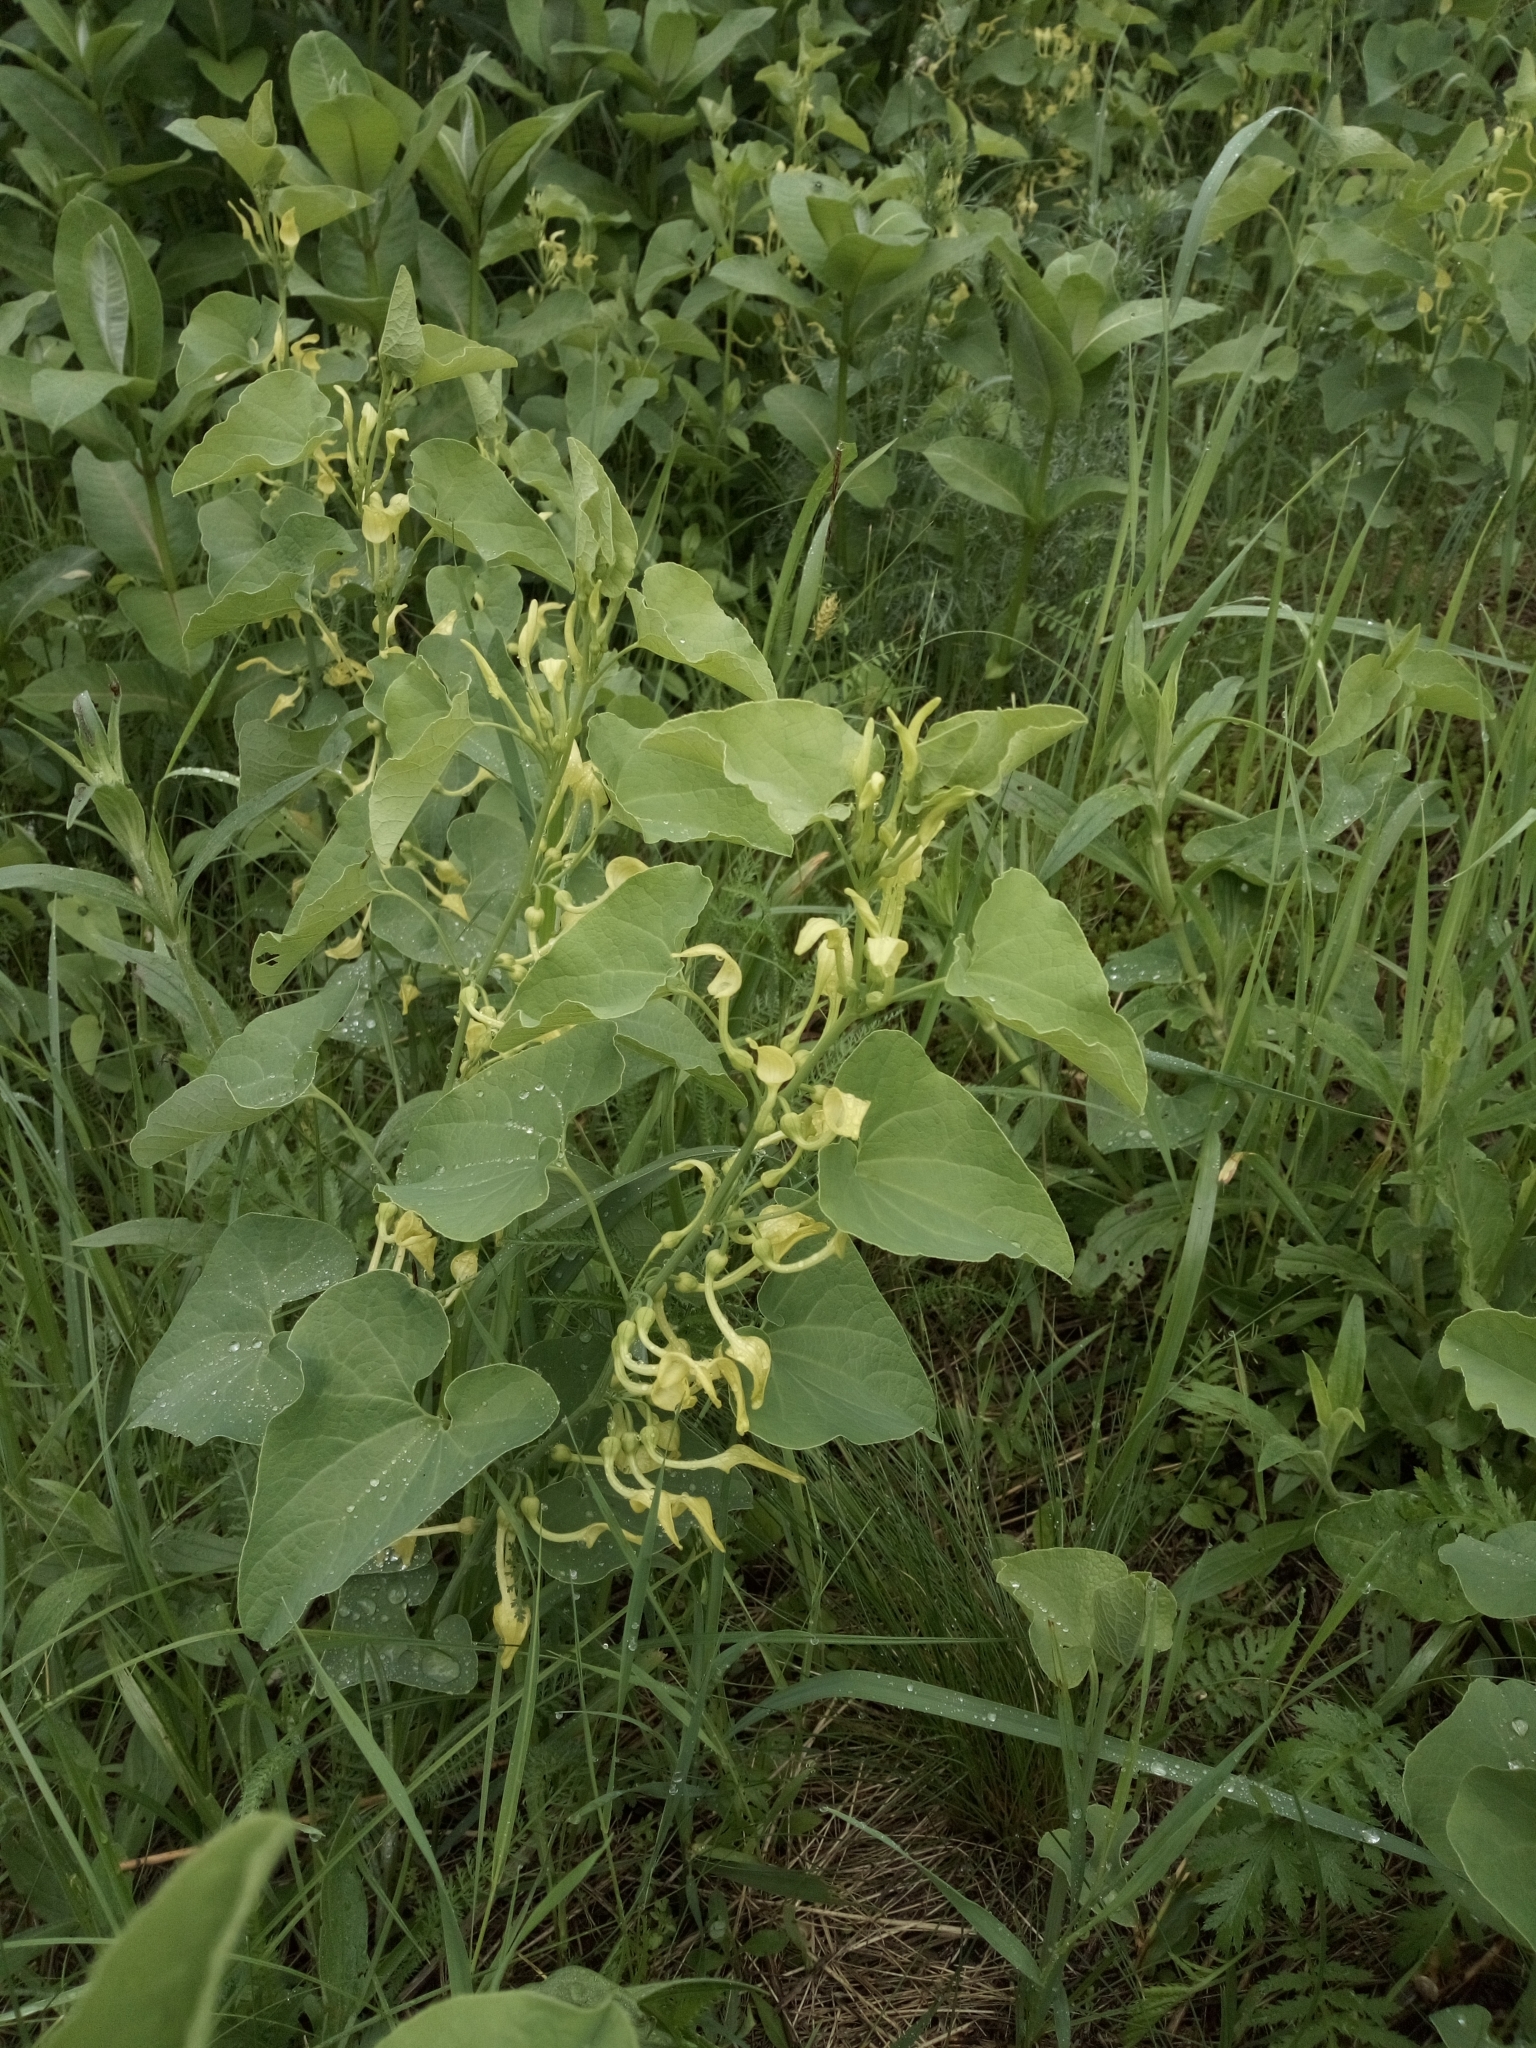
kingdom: Plantae
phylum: Tracheophyta
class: Magnoliopsida
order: Piperales
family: Aristolochiaceae
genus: Aristolochia
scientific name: Aristolochia clematitis
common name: Birthwort
